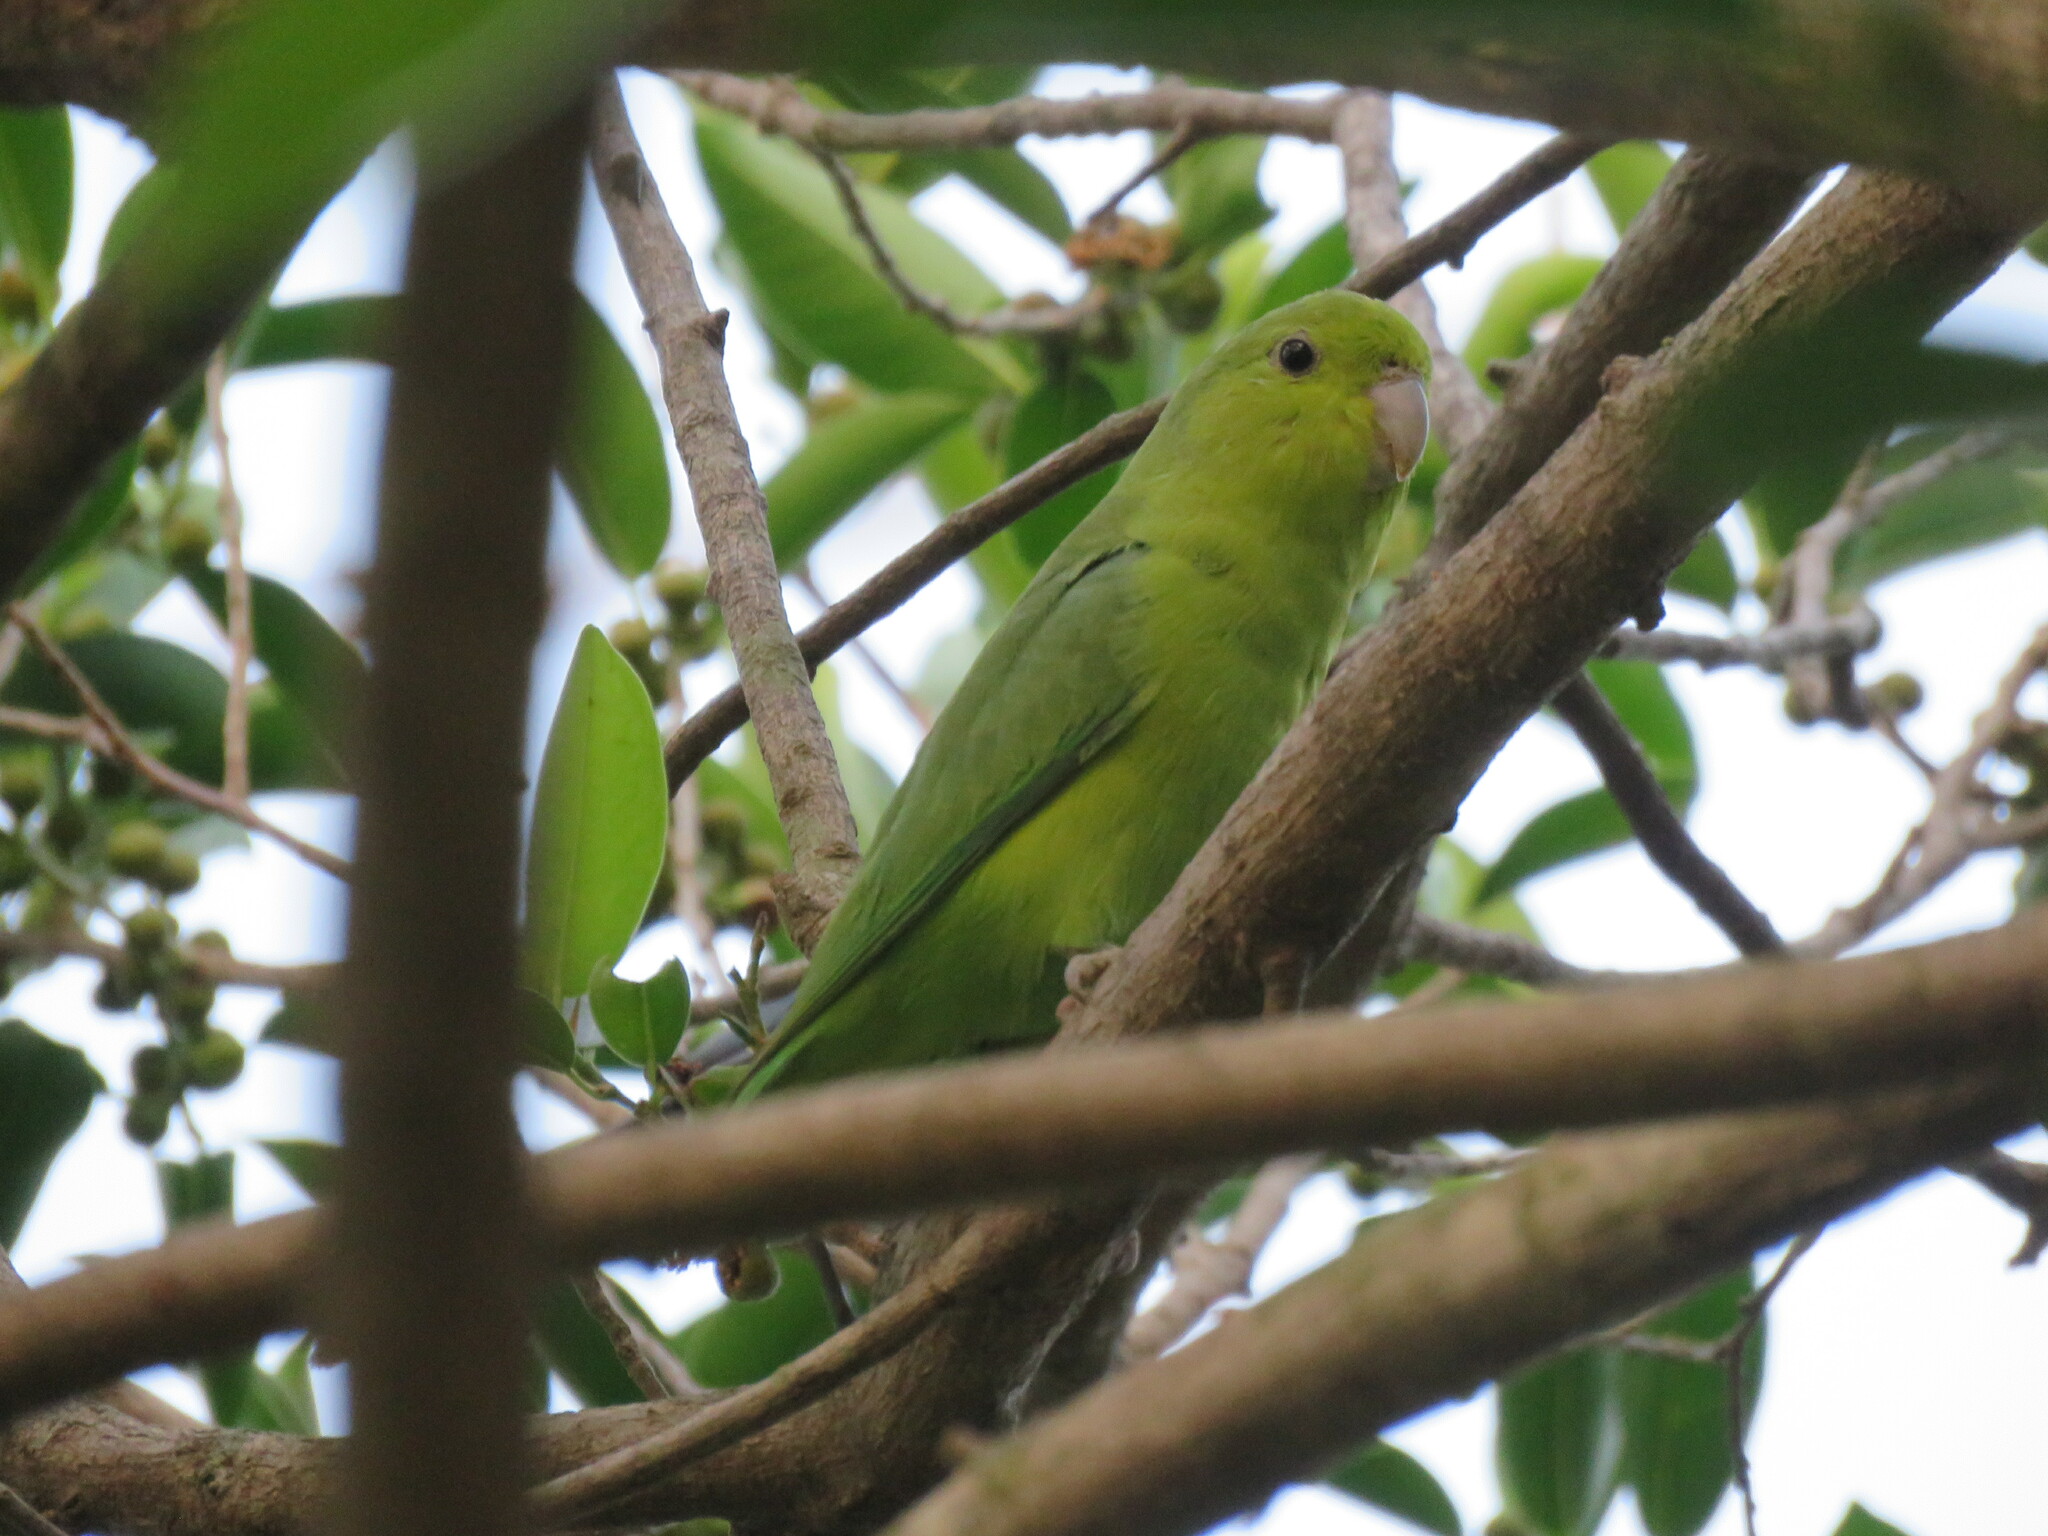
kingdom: Animalia
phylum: Chordata
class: Aves
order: Psittaciformes
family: Psittacidae
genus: Forpus
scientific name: Forpus xanthopterygius
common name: Blue-winged parrotlet
